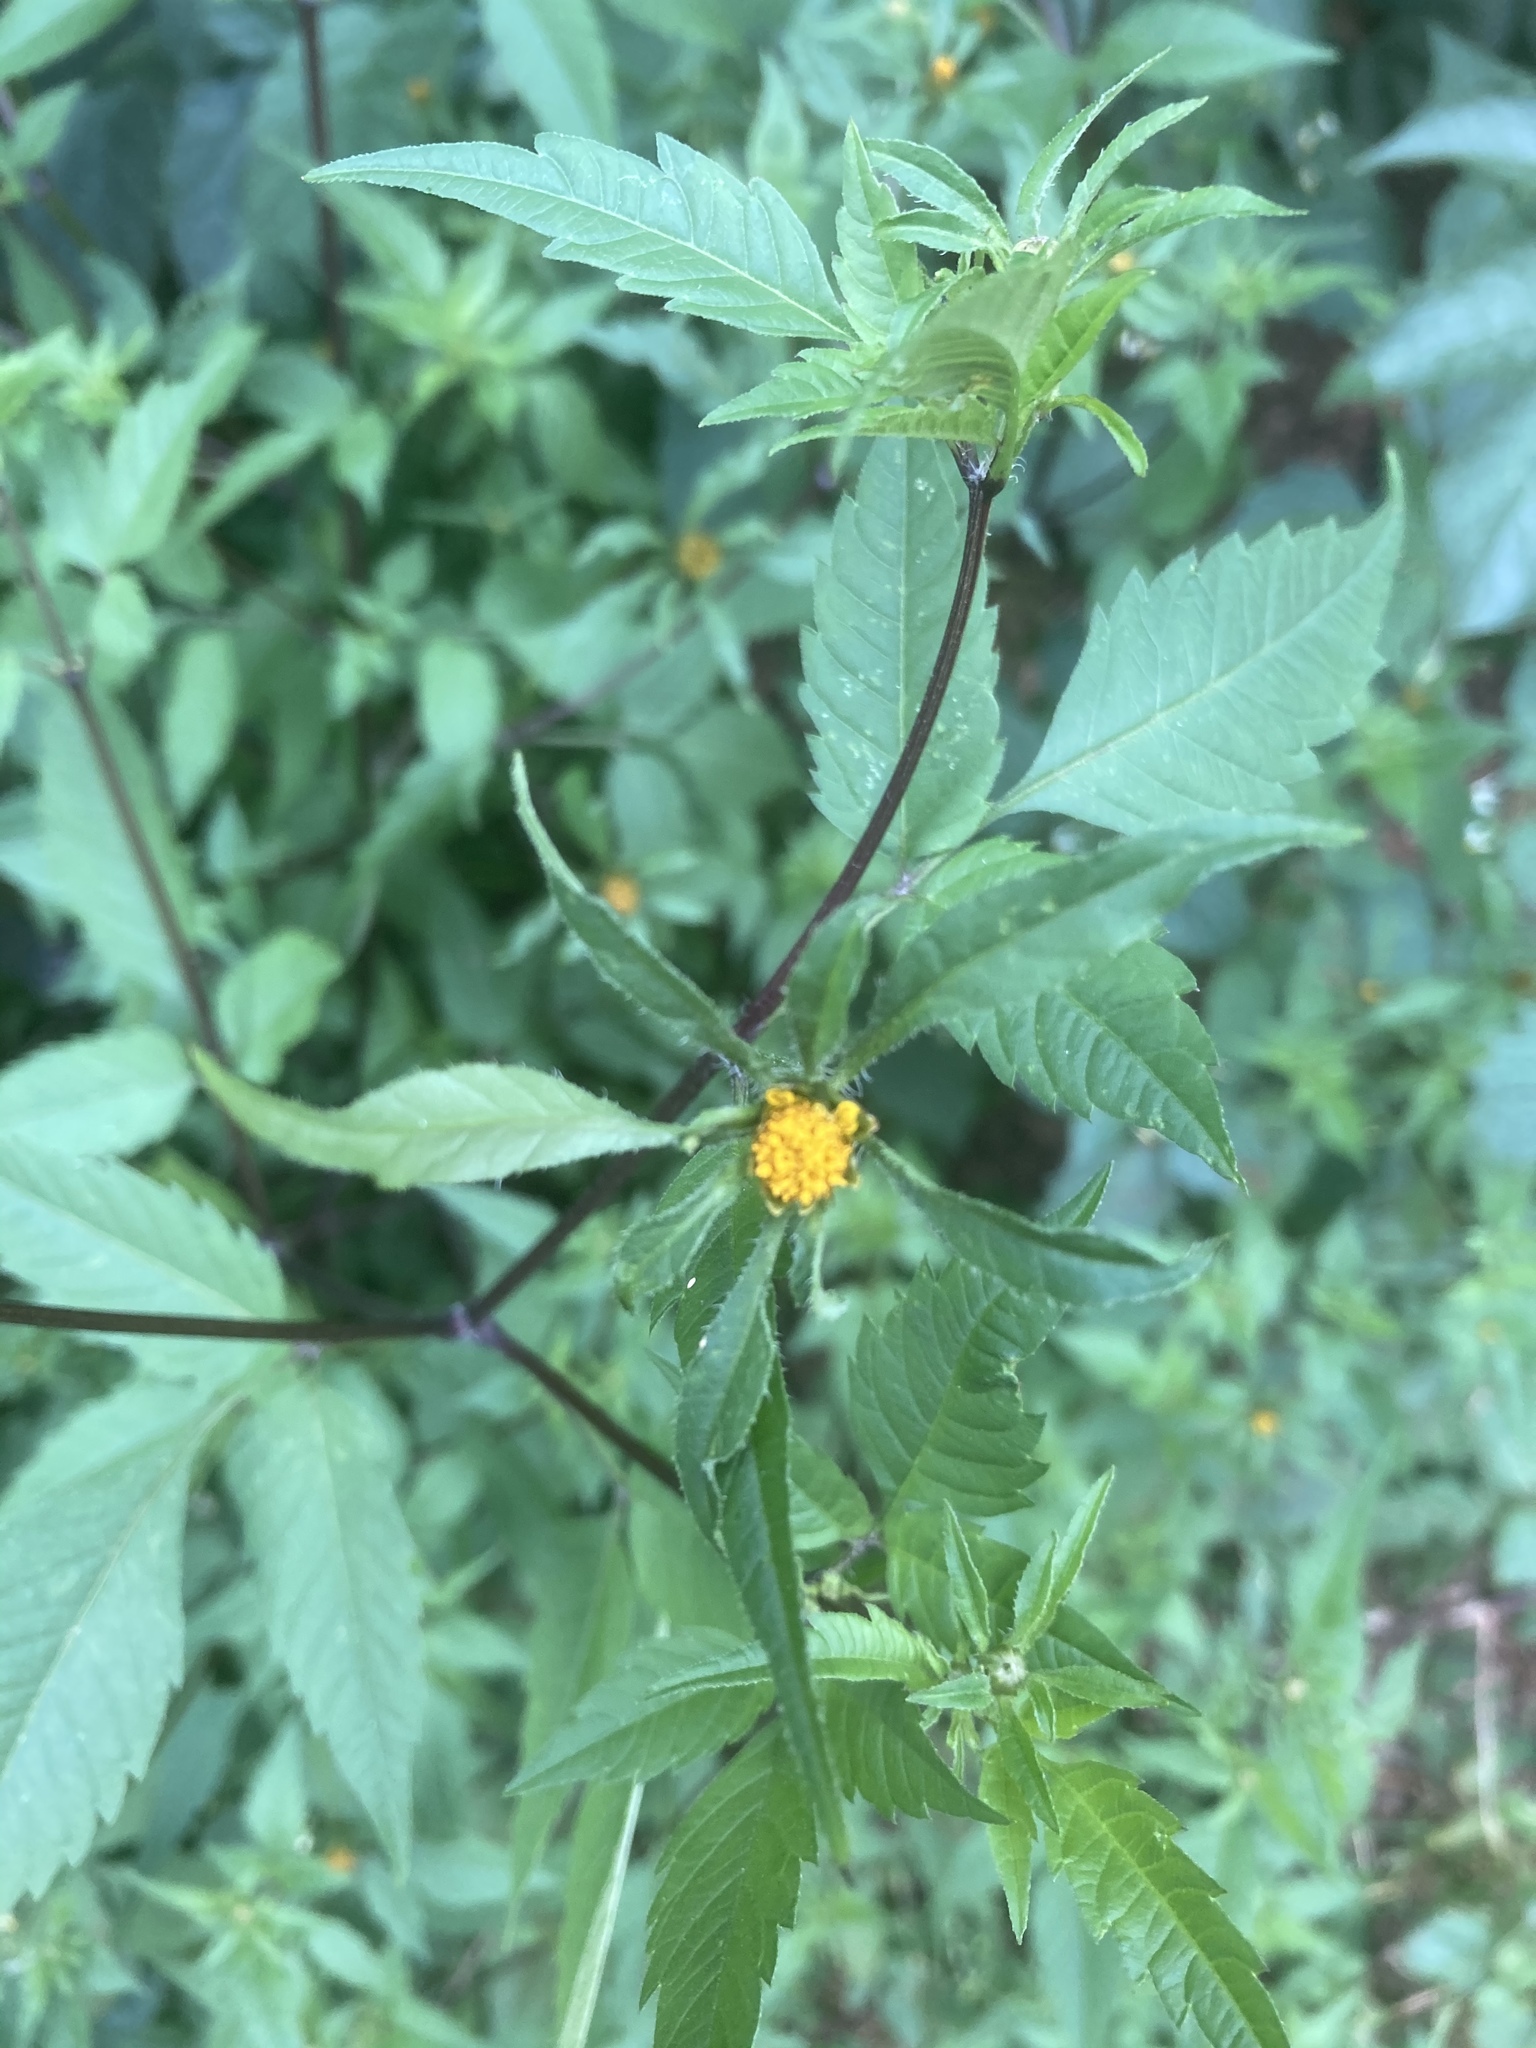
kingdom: Plantae
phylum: Tracheophyta
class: Magnoliopsida
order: Asterales
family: Asteraceae
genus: Bidens
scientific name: Bidens frondosa
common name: Beggarticks
